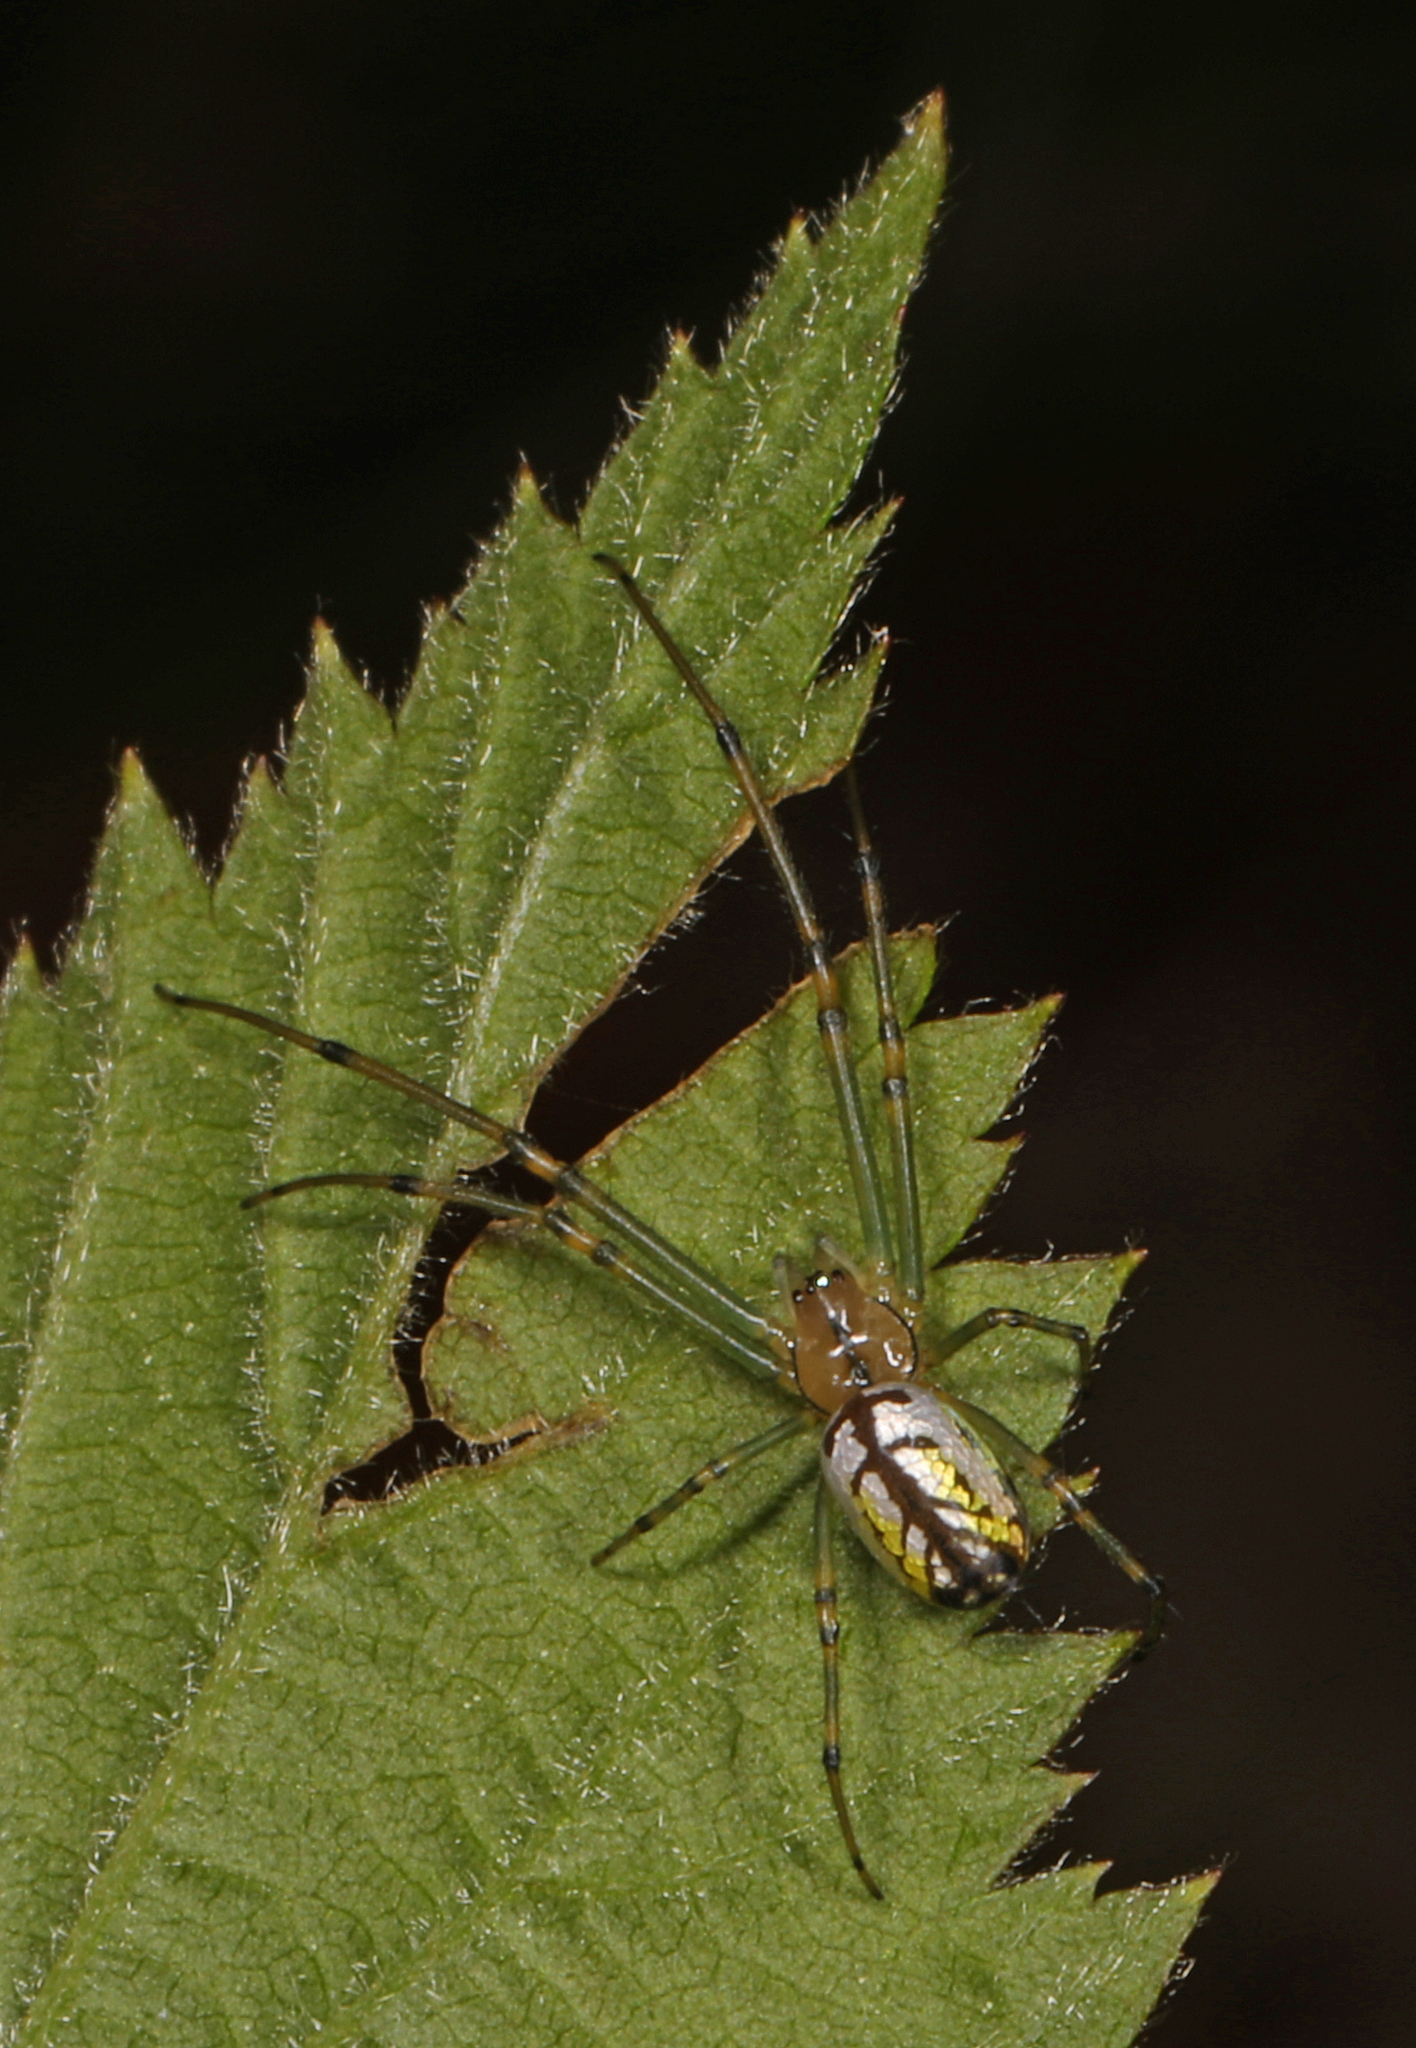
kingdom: Animalia
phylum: Arthropoda
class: Arachnida
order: Araneae
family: Tetragnathidae
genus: Leucauge
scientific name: Leucauge venusta
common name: Longjawed orb weavers
